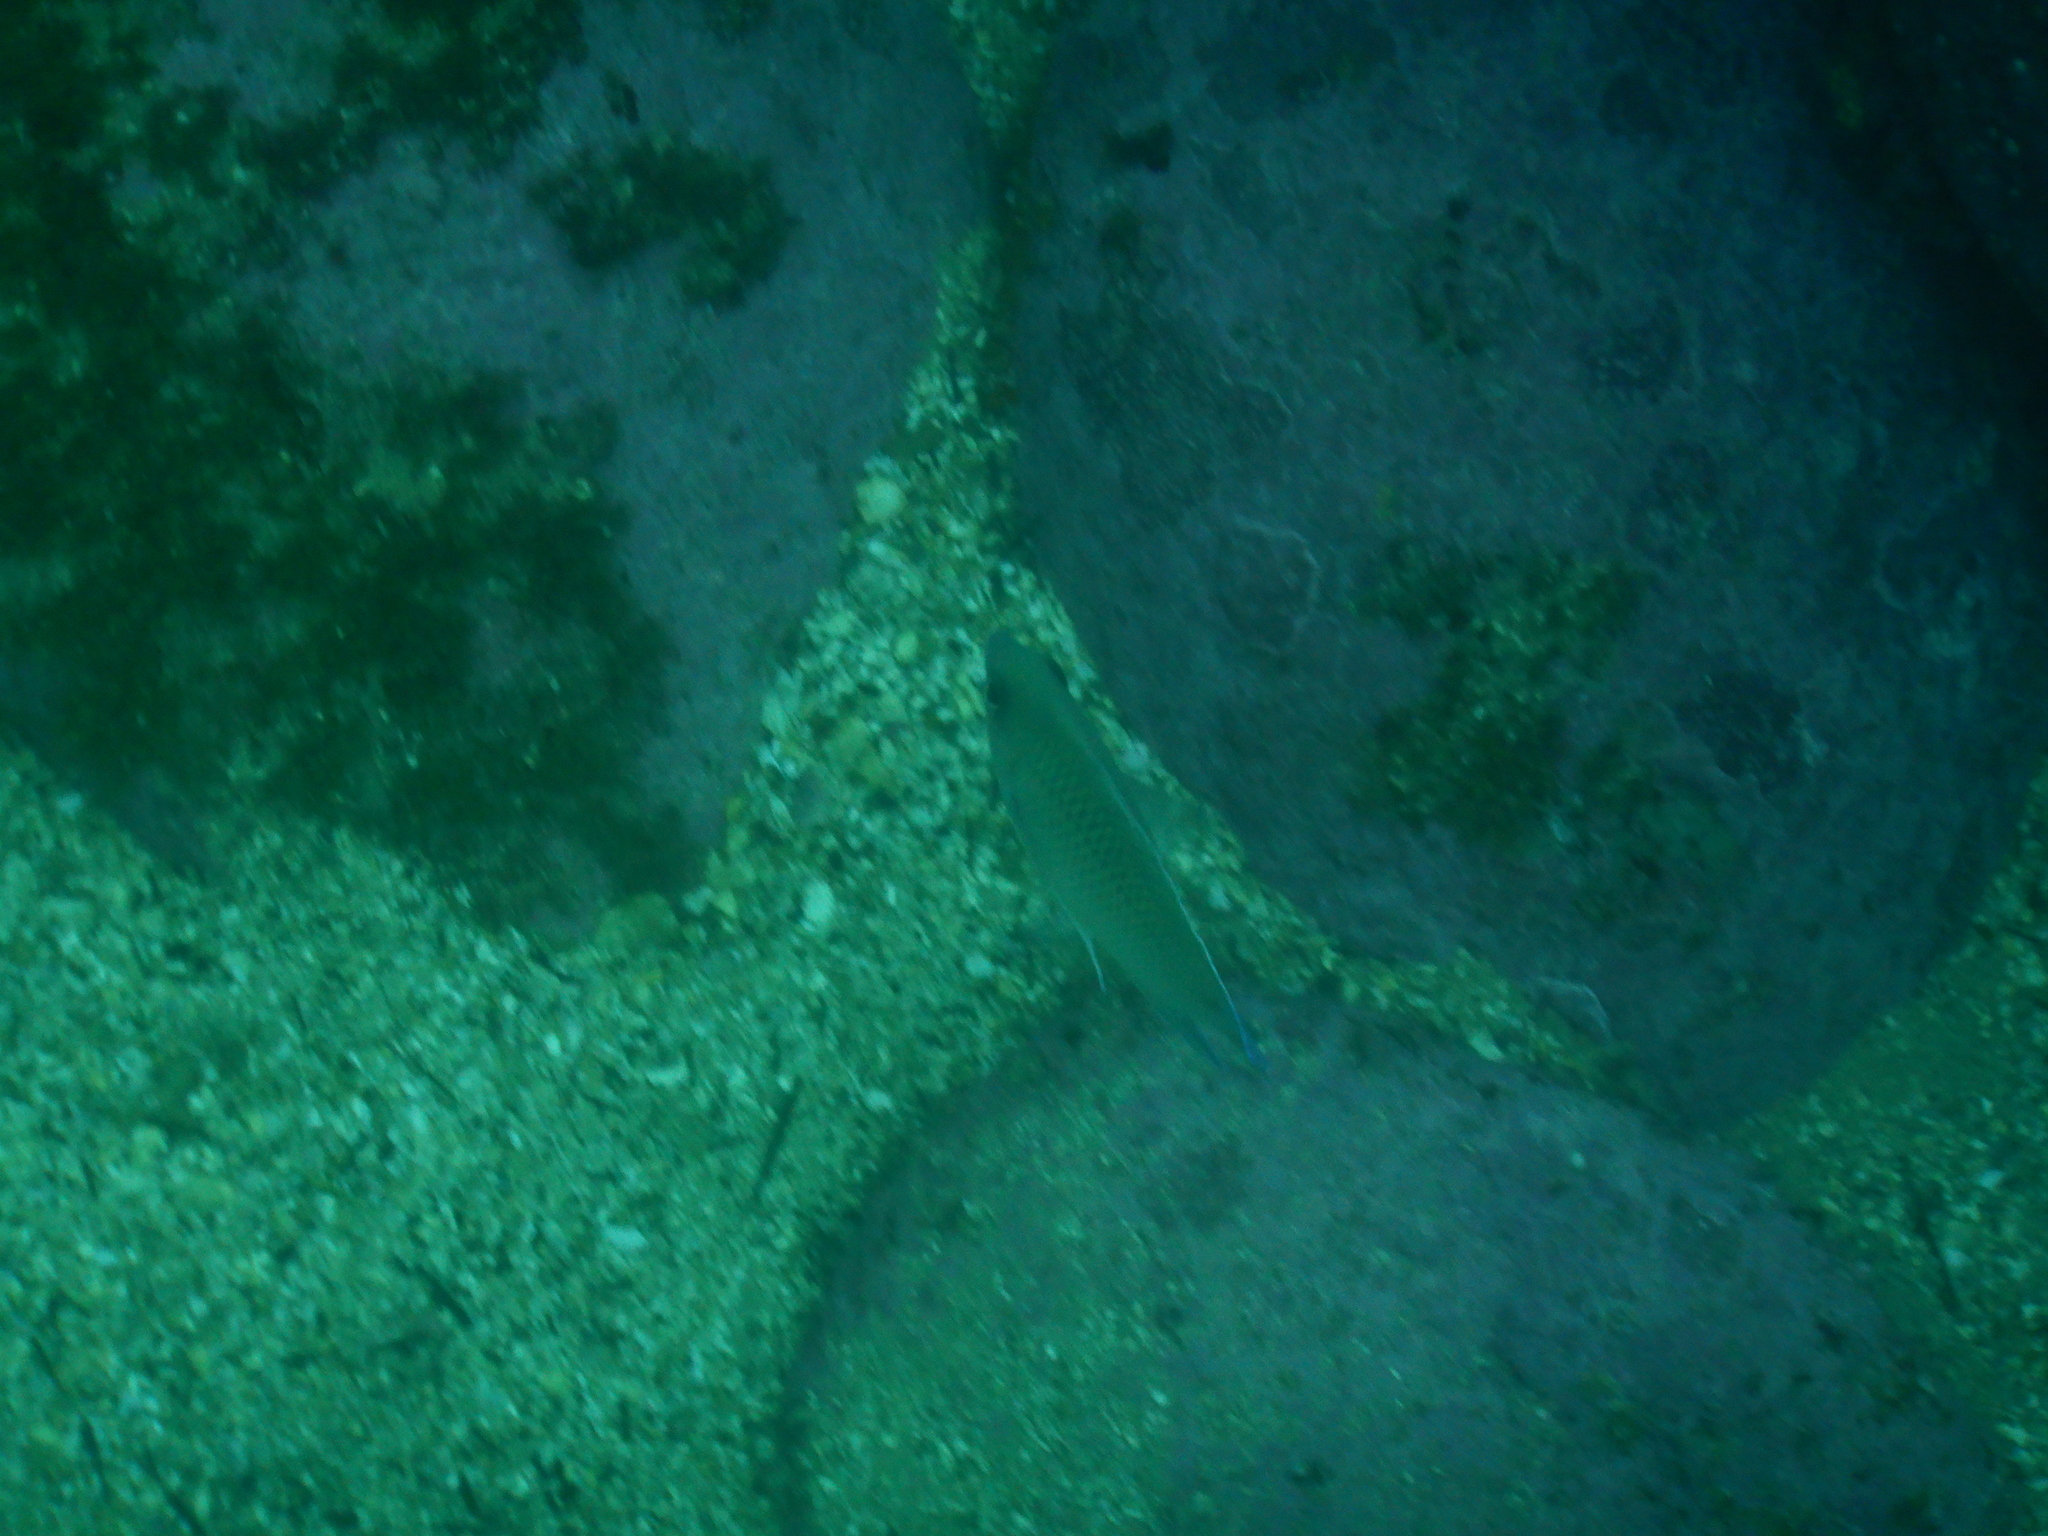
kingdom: Animalia
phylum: Chordata
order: Perciformes
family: Pomacentridae
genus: Mecaenichthys
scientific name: Mecaenichthys immaculatus
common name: Immaculate damsel
